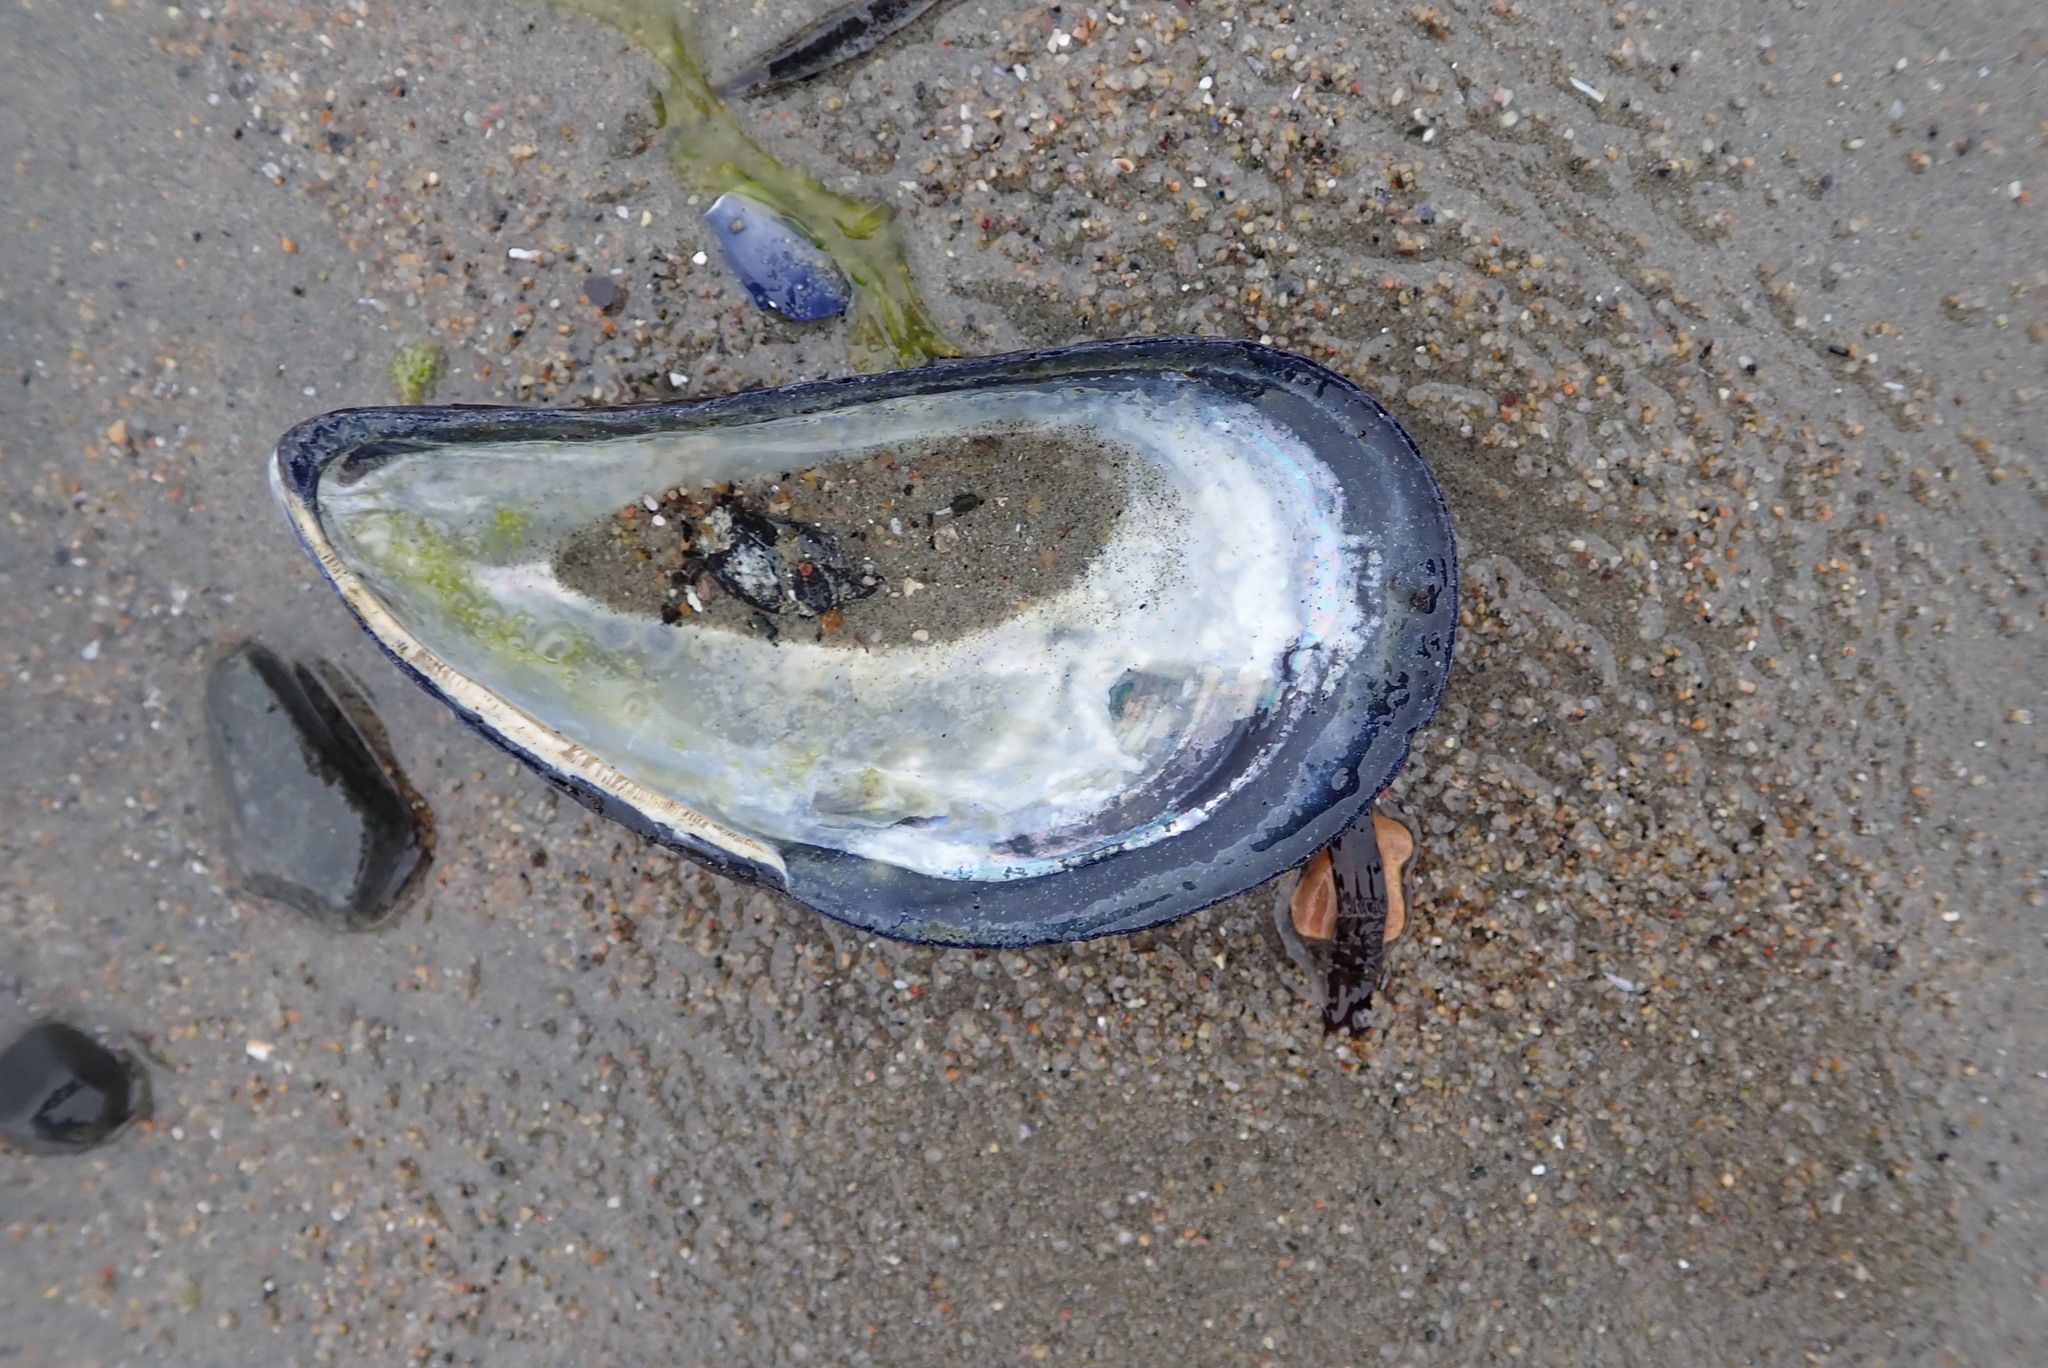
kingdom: Animalia
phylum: Mollusca
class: Bivalvia
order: Mytilida
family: Mytilidae
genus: Mytilus
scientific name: Mytilus edulis
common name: Blue mussel
